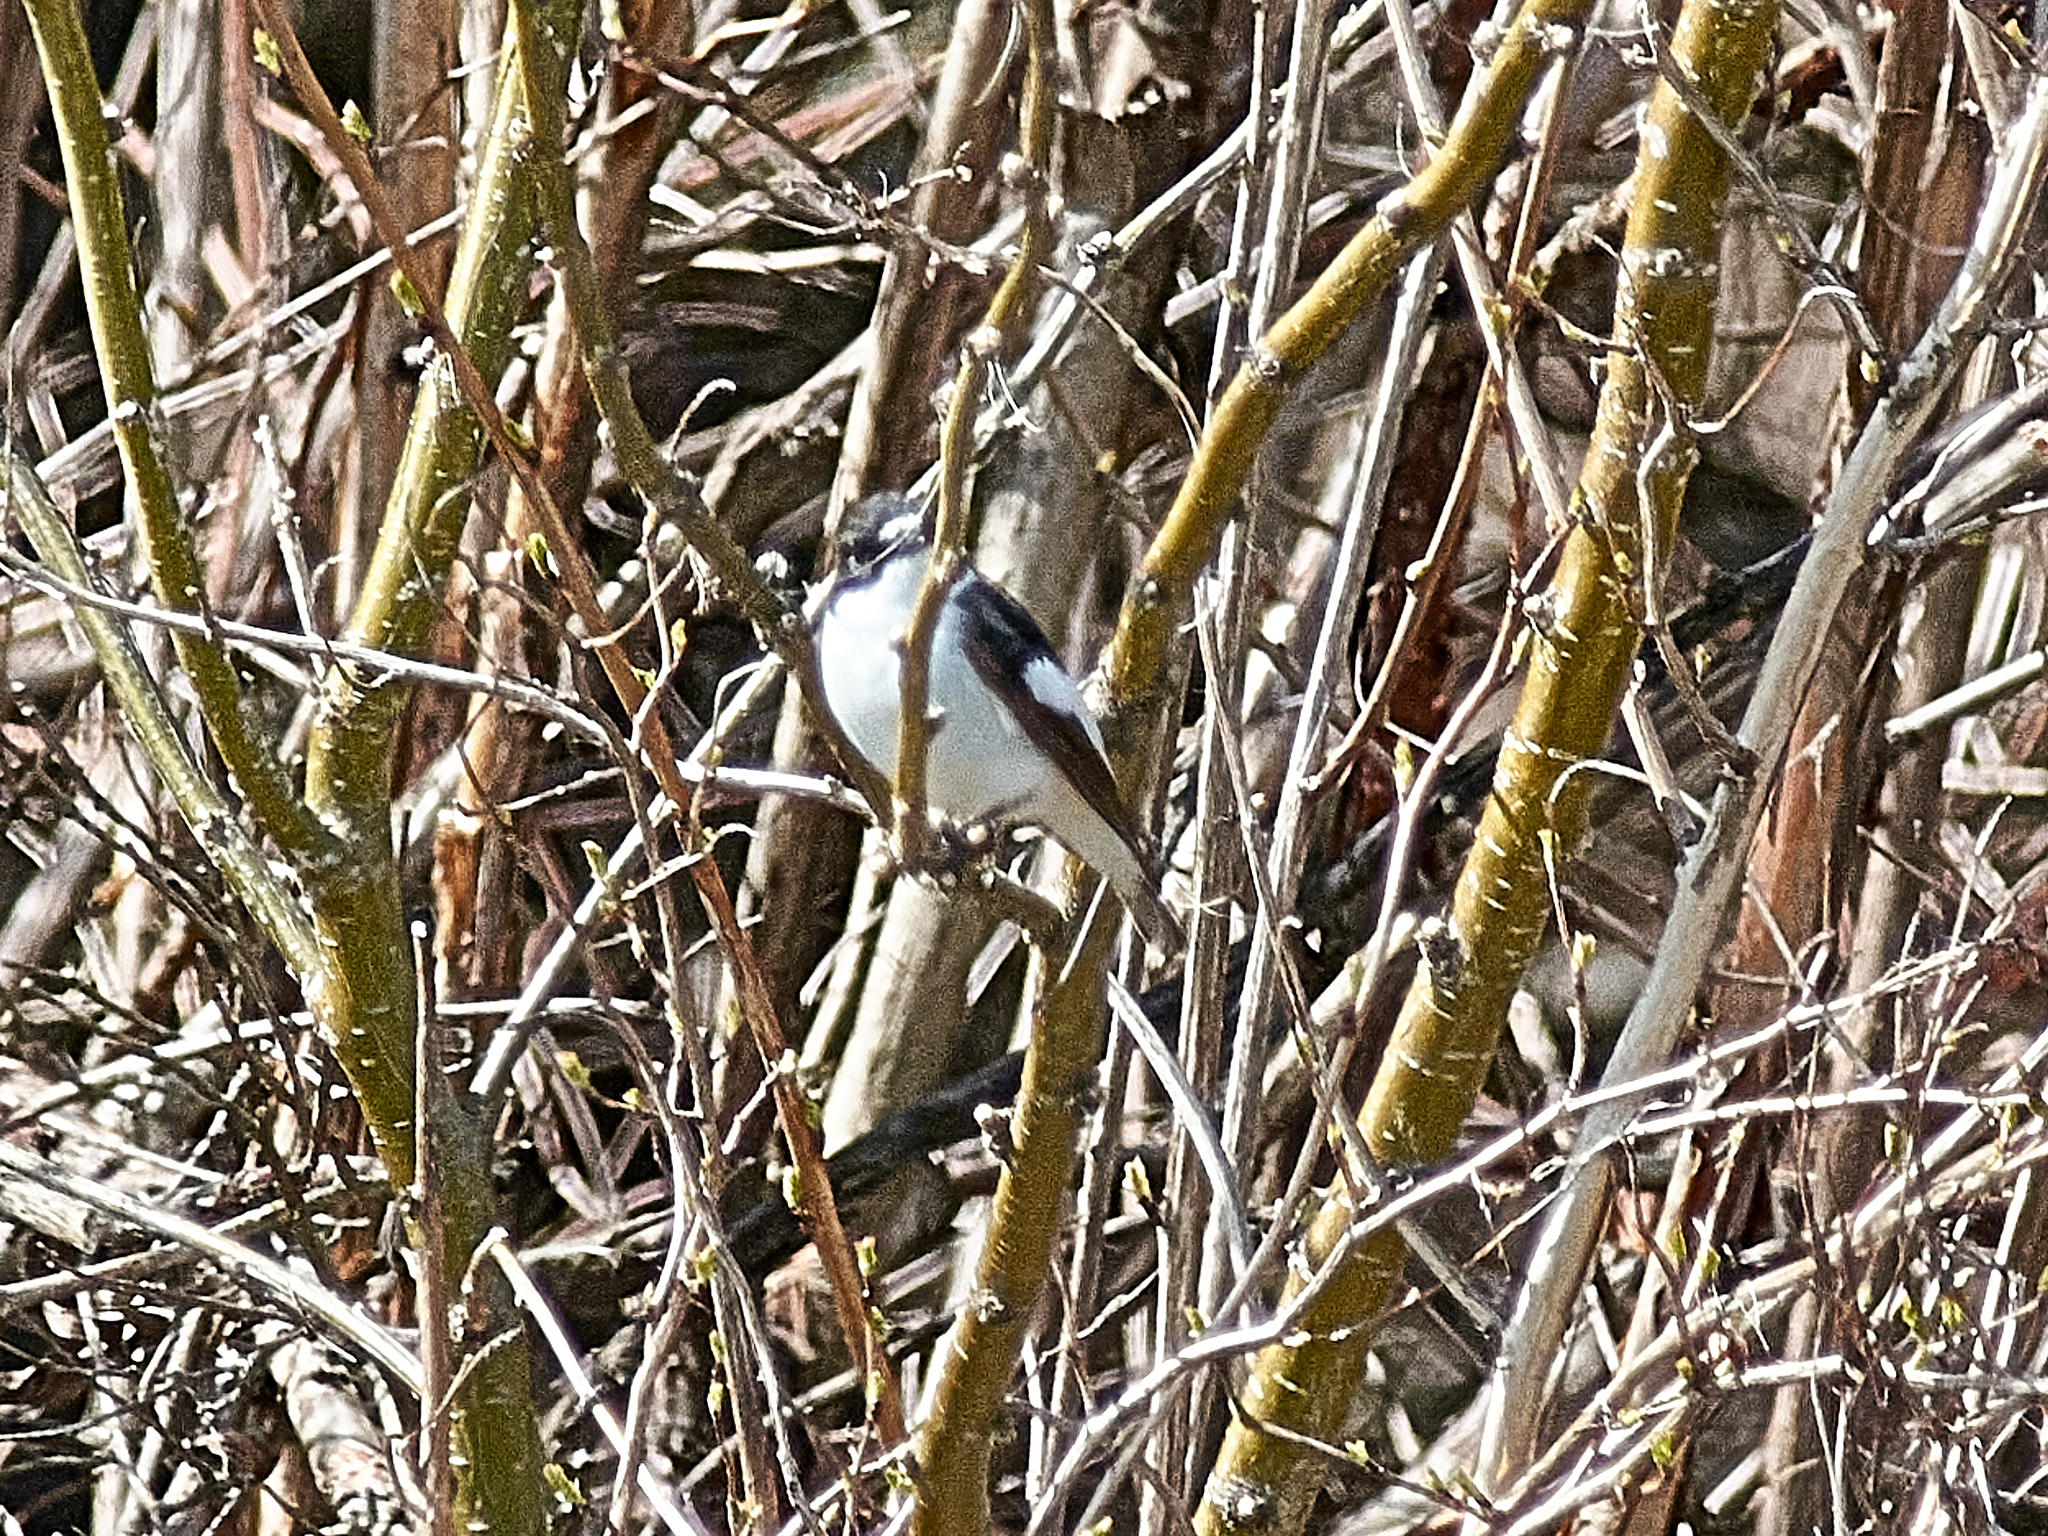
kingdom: Animalia
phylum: Chordata
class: Aves
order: Passeriformes
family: Muscicapidae
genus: Ficedula
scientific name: Ficedula hypoleuca
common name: European pied flycatcher
